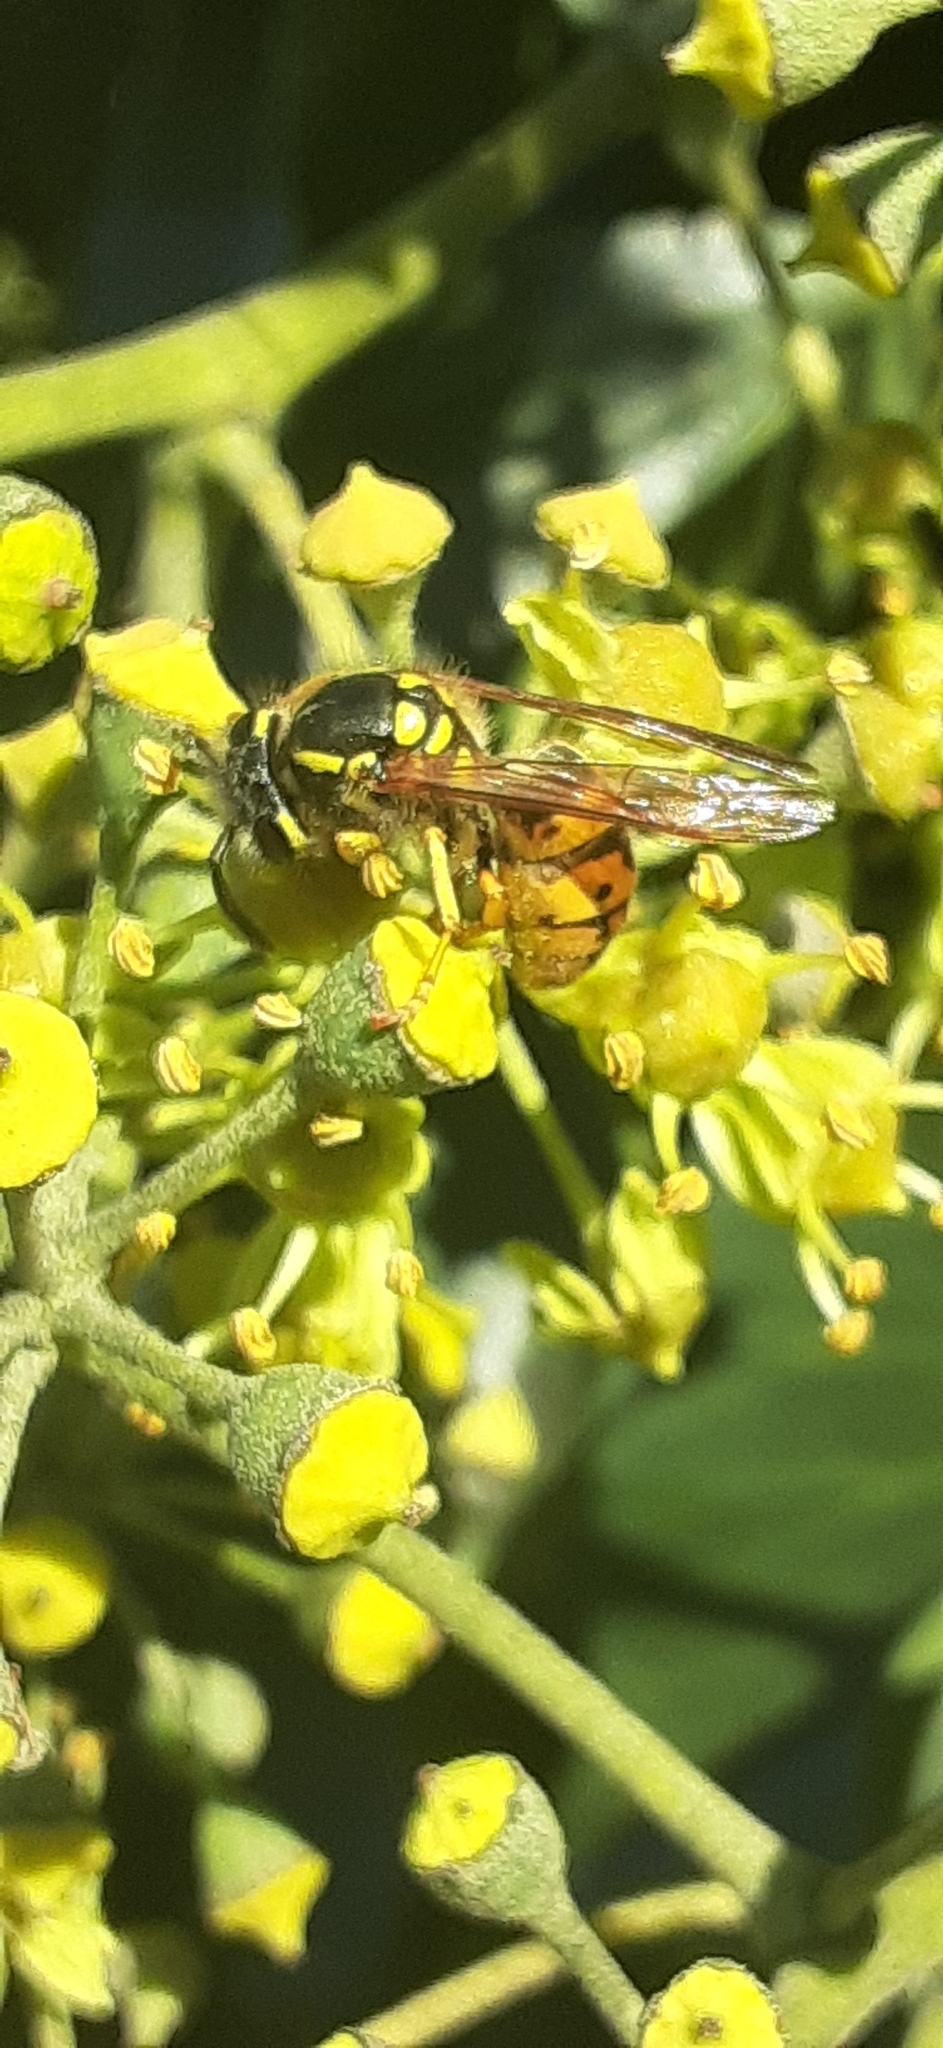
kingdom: Animalia
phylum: Arthropoda
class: Insecta
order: Hymenoptera
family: Vespidae
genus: Vespula
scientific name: Vespula germanica
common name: German wasp
